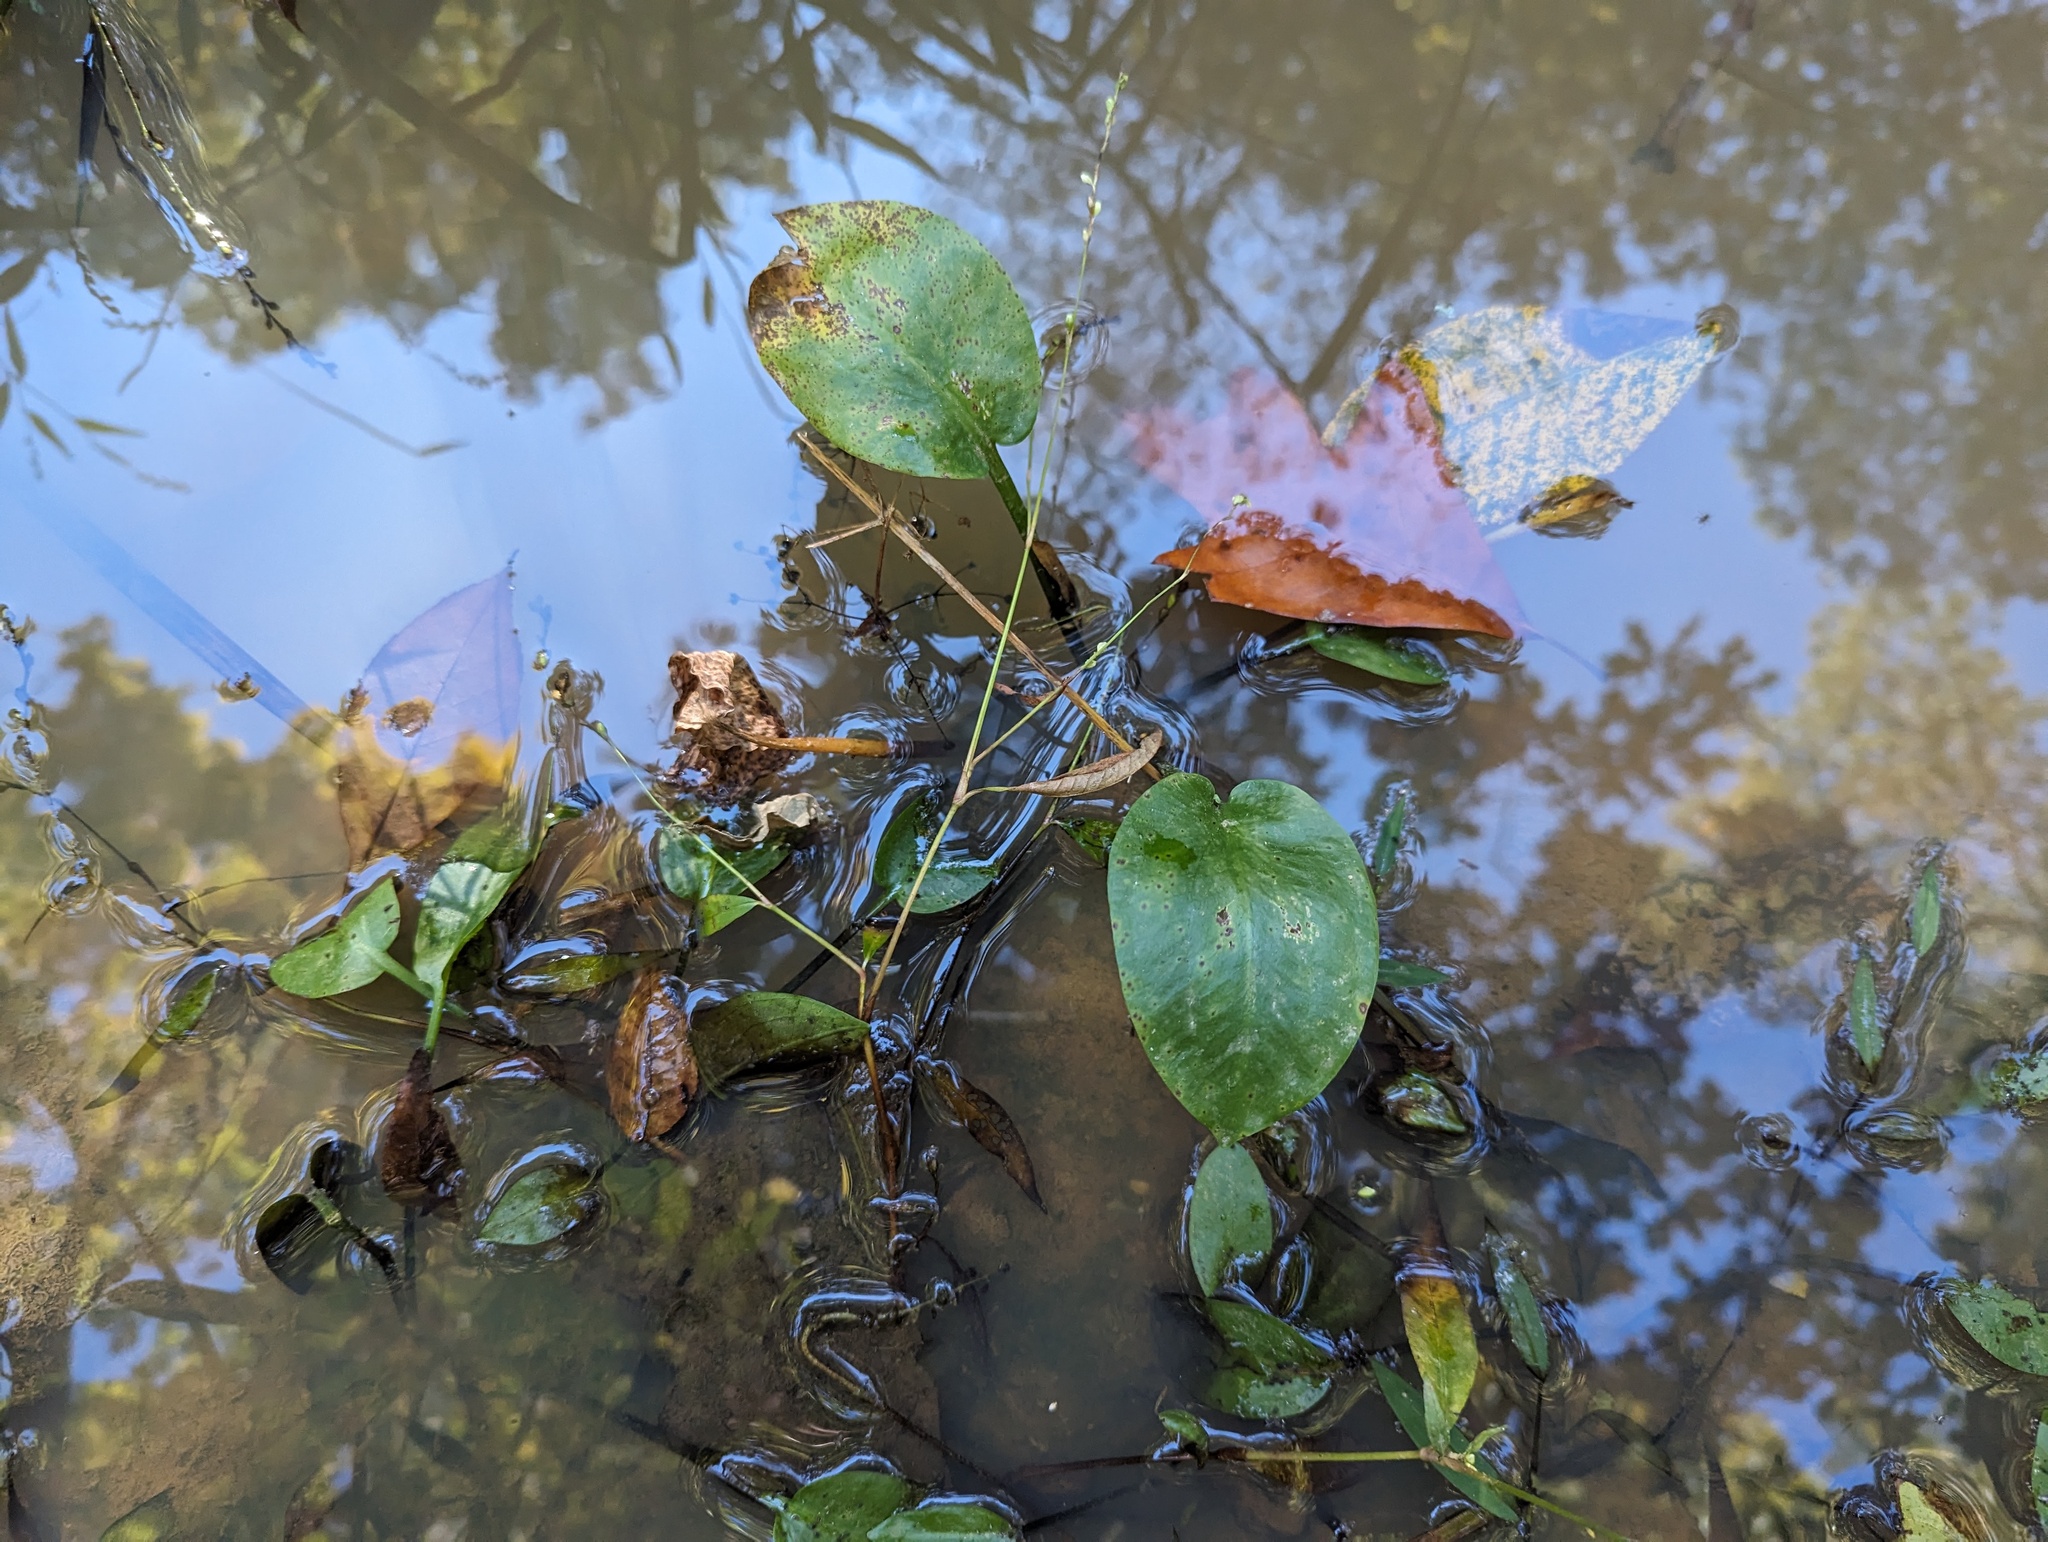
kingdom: Plantae
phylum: Tracheophyta
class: Liliopsida
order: Alismatales
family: Alismataceae
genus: Alisma
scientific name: Alisma subcordatum
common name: Southern water-plantain
